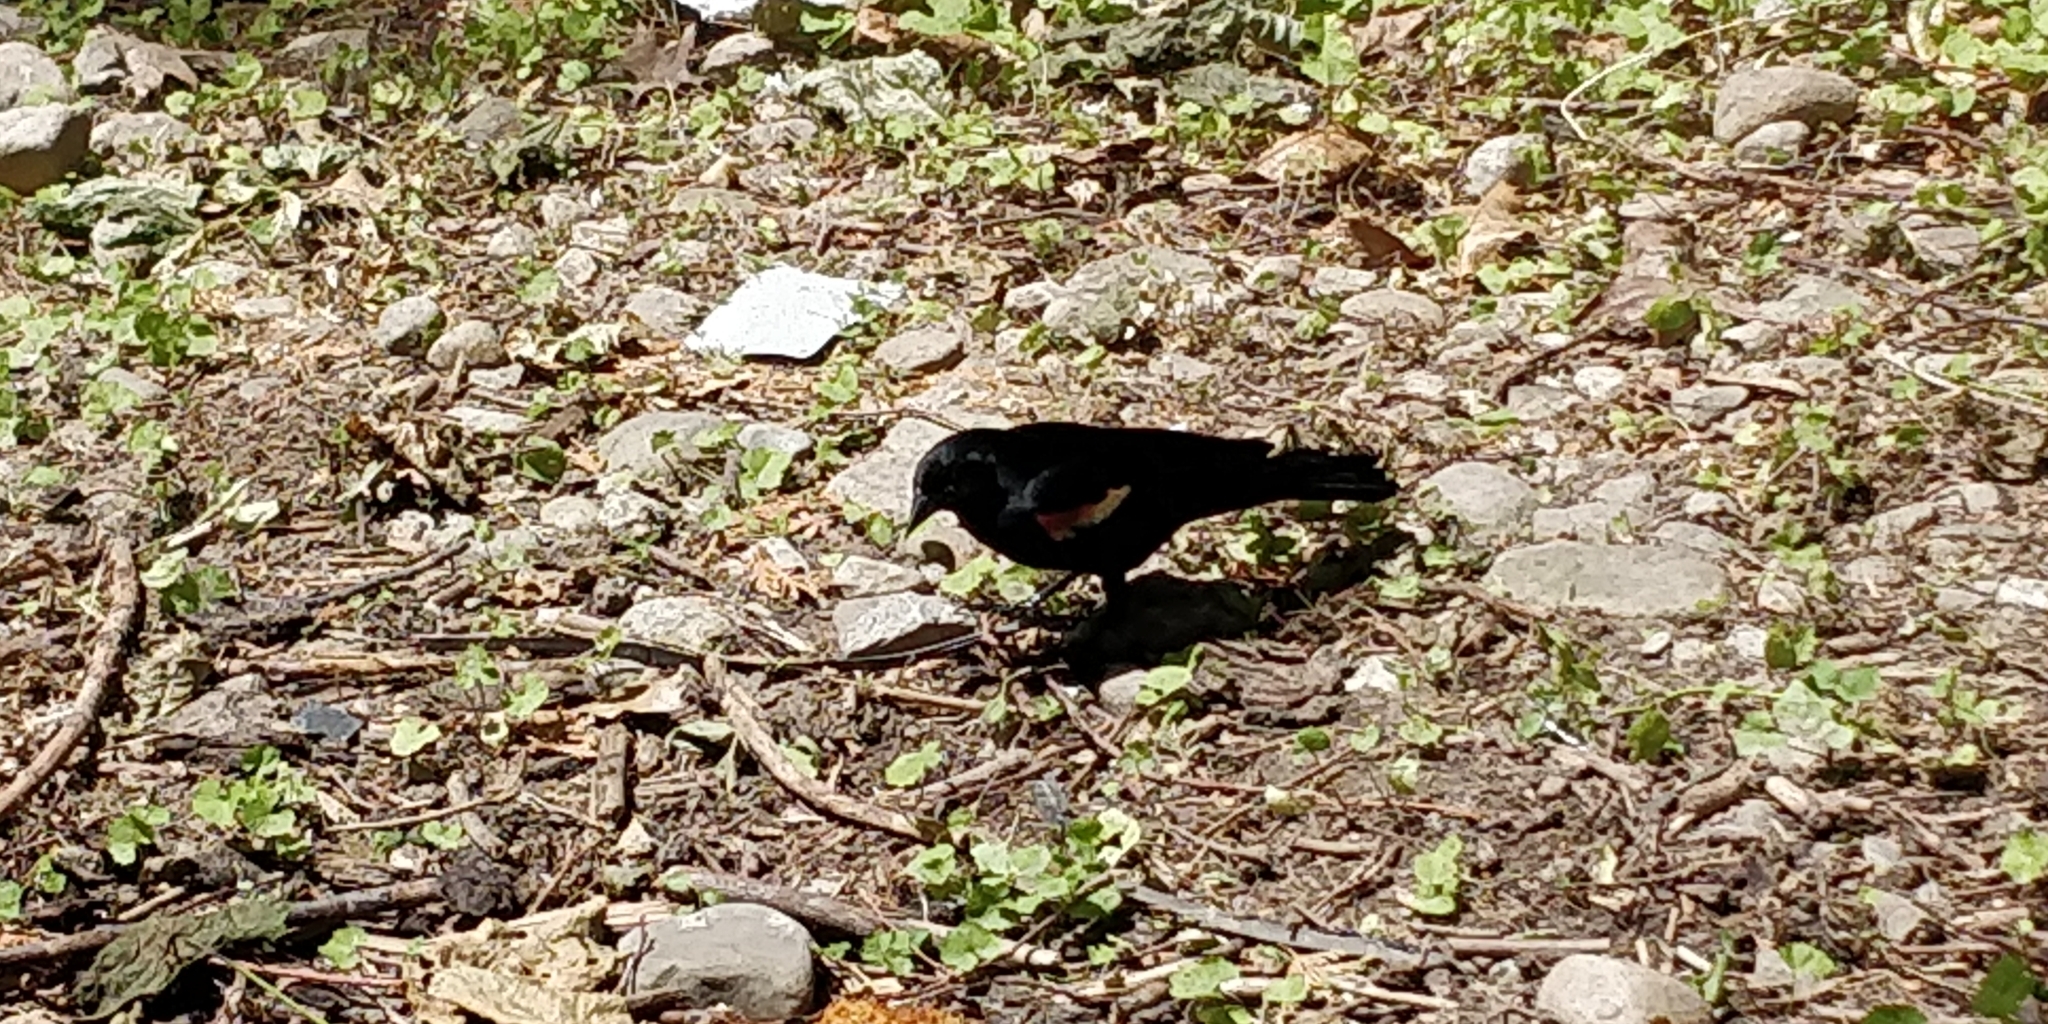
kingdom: Animalia
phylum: Chordata
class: Aves
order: Passeriformes
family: Icteridae
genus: Agelaius
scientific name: Agelaius phoeniceus
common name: Red-winged blackbird
